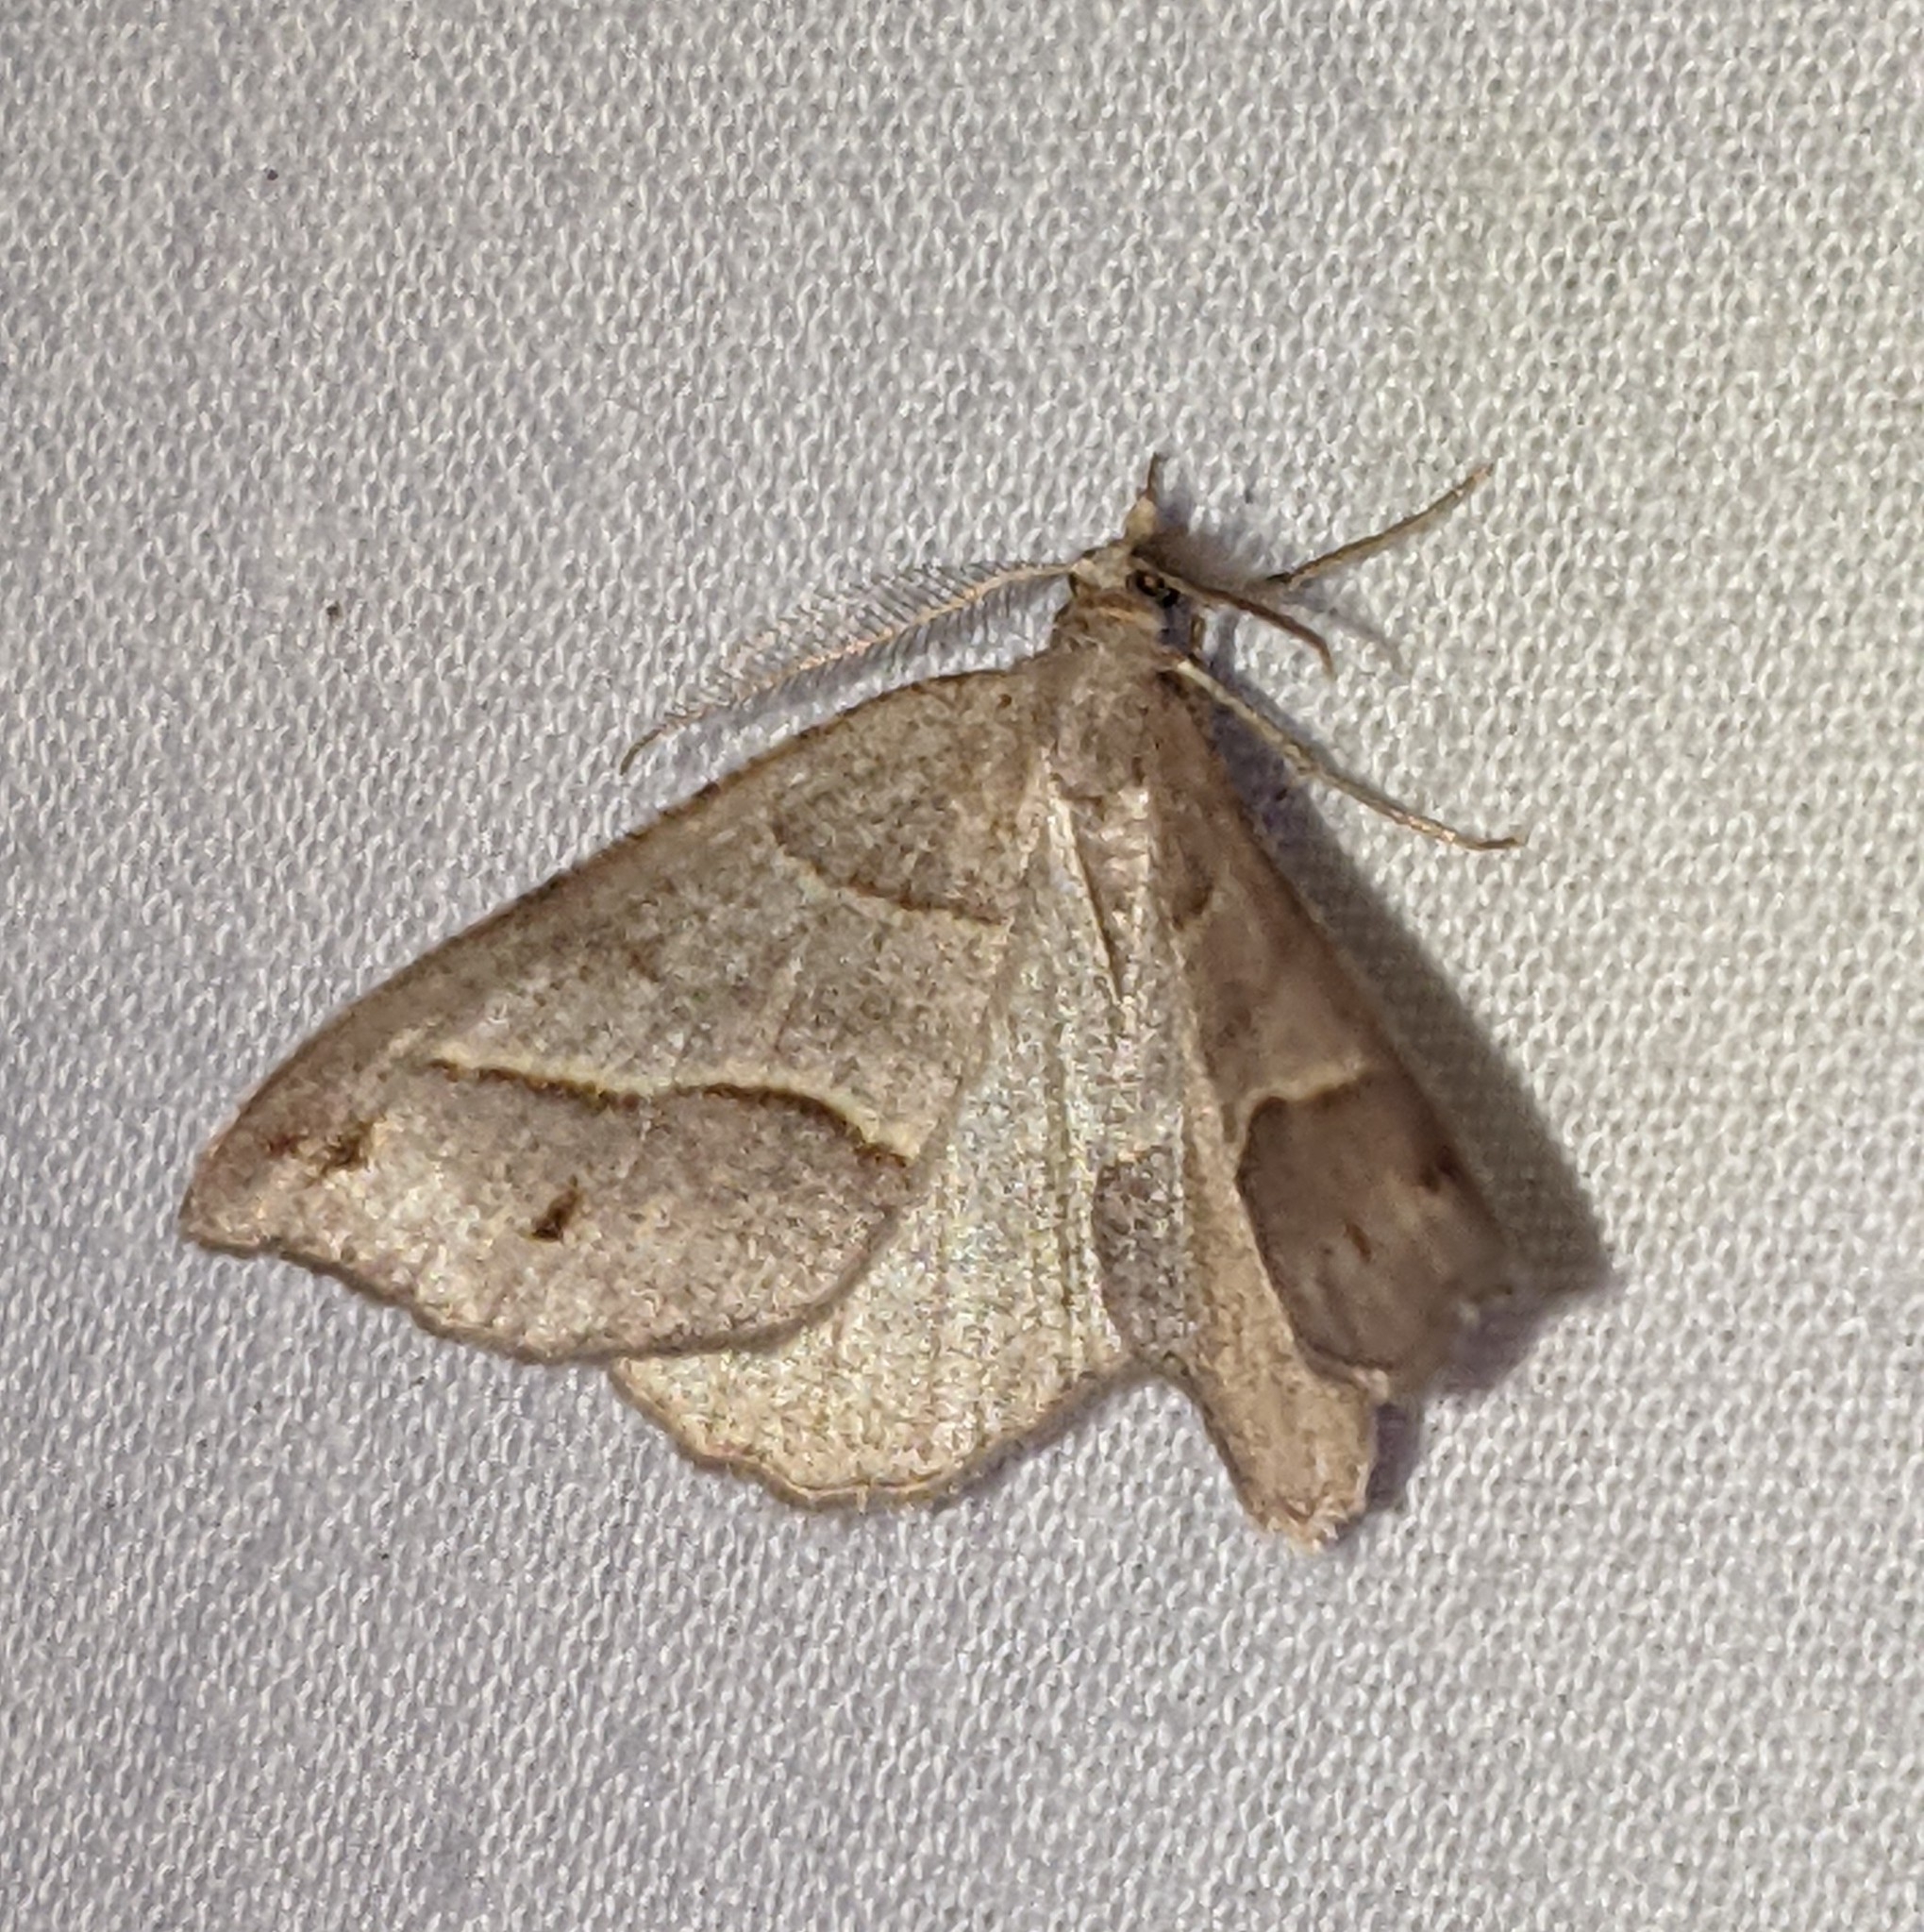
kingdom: Animalia
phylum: Arthropoda
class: Insecta
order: Lepidoptera
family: Geometridae
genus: Macaria
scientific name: Macaria lorquinaria
